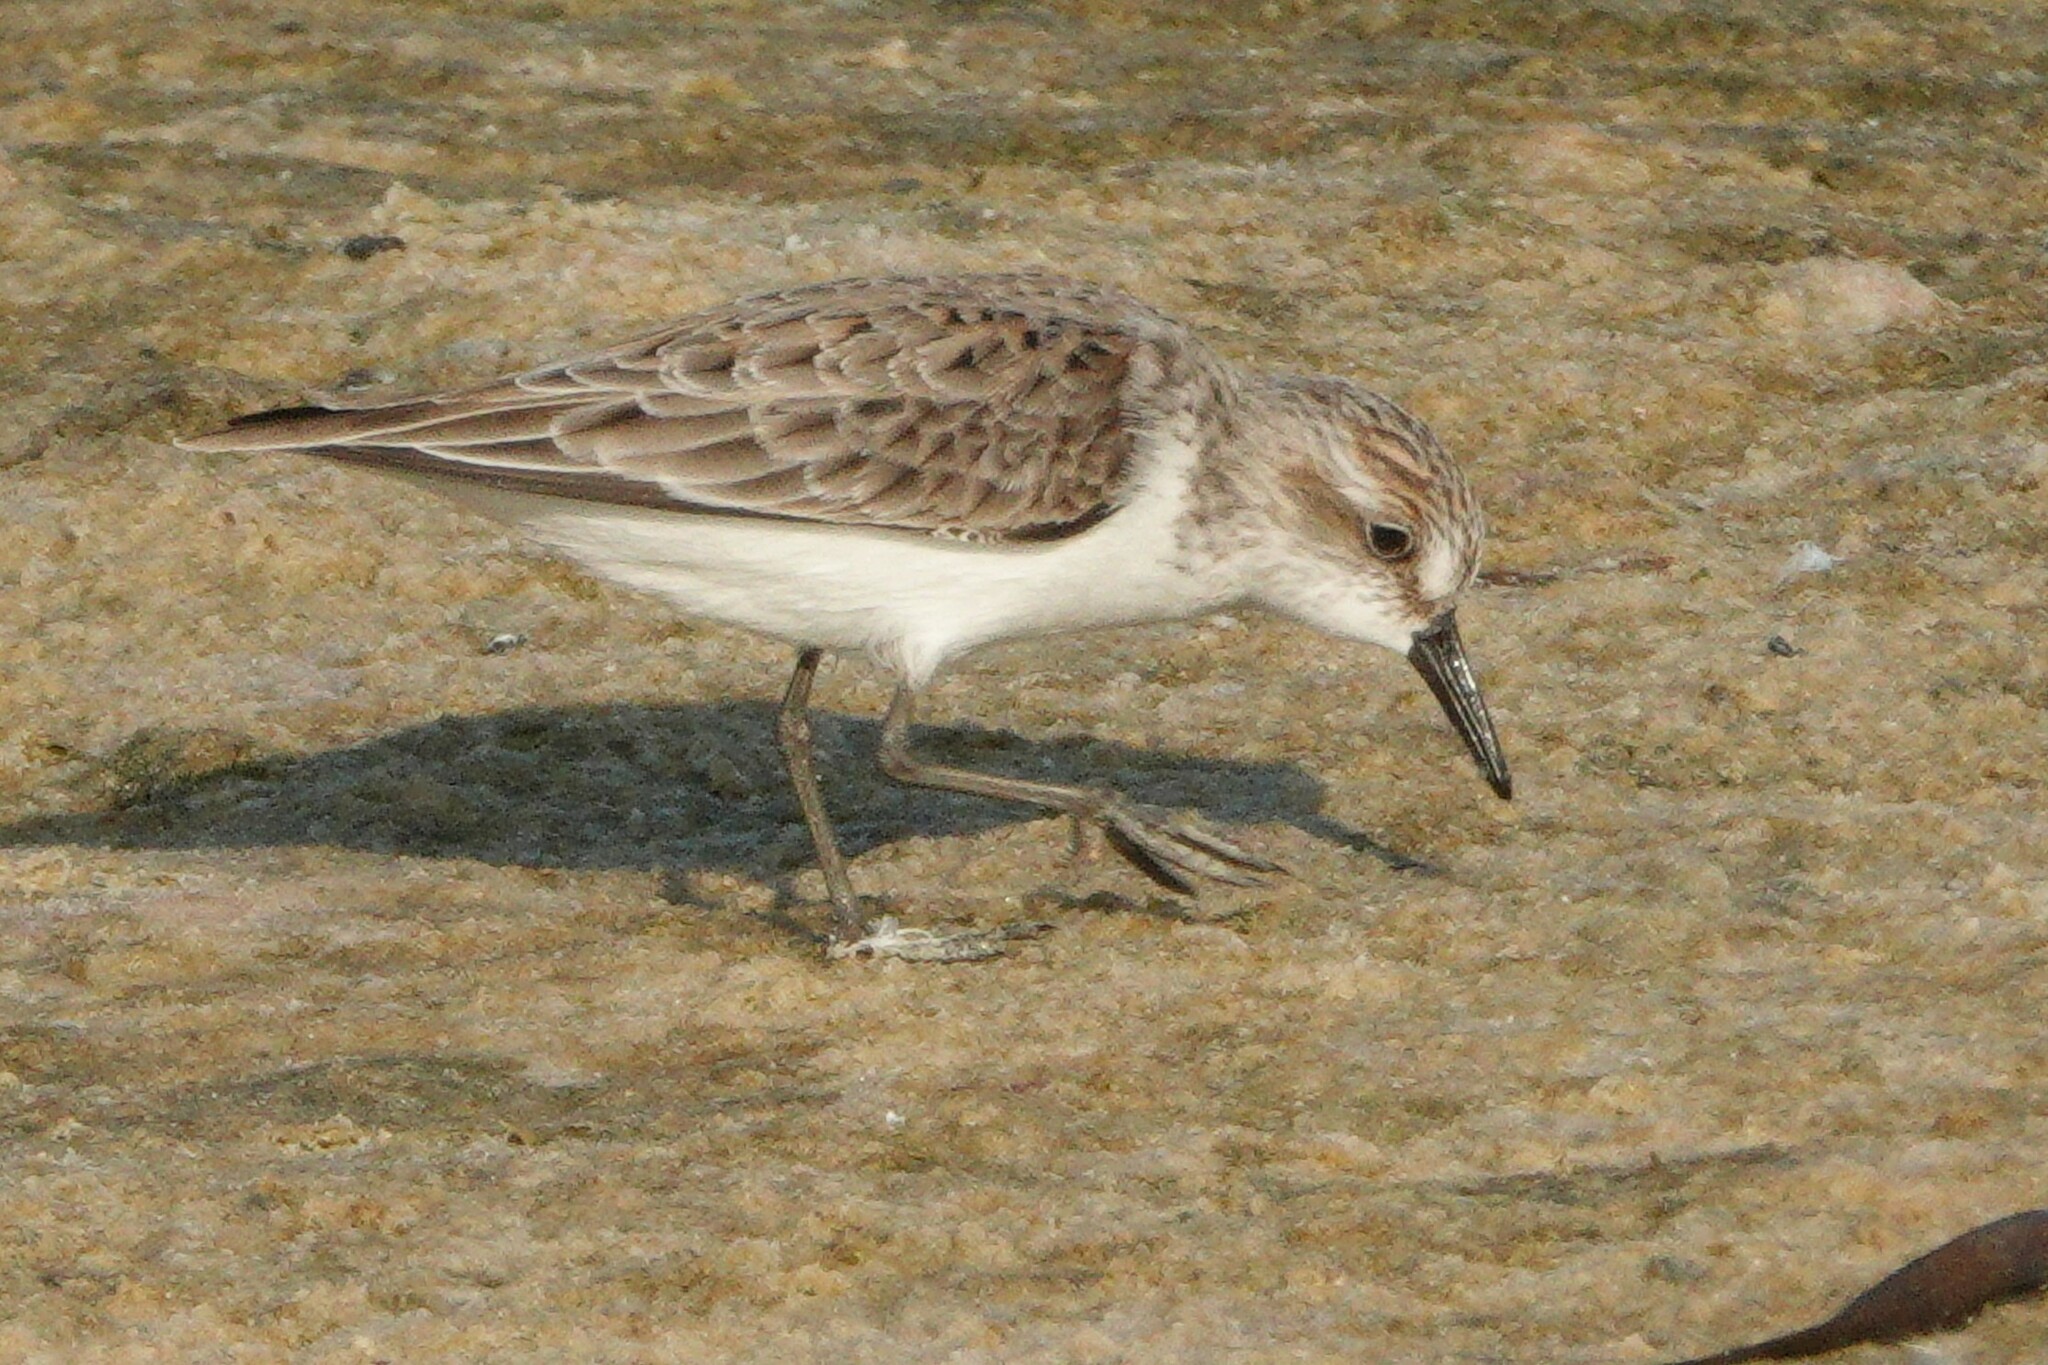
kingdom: Animalia
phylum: Chordata
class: Aves
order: Charadriiformes
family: Scolopacidae
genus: Calidris
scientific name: Calidris pusilla
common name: Semipalmated sandpiper
